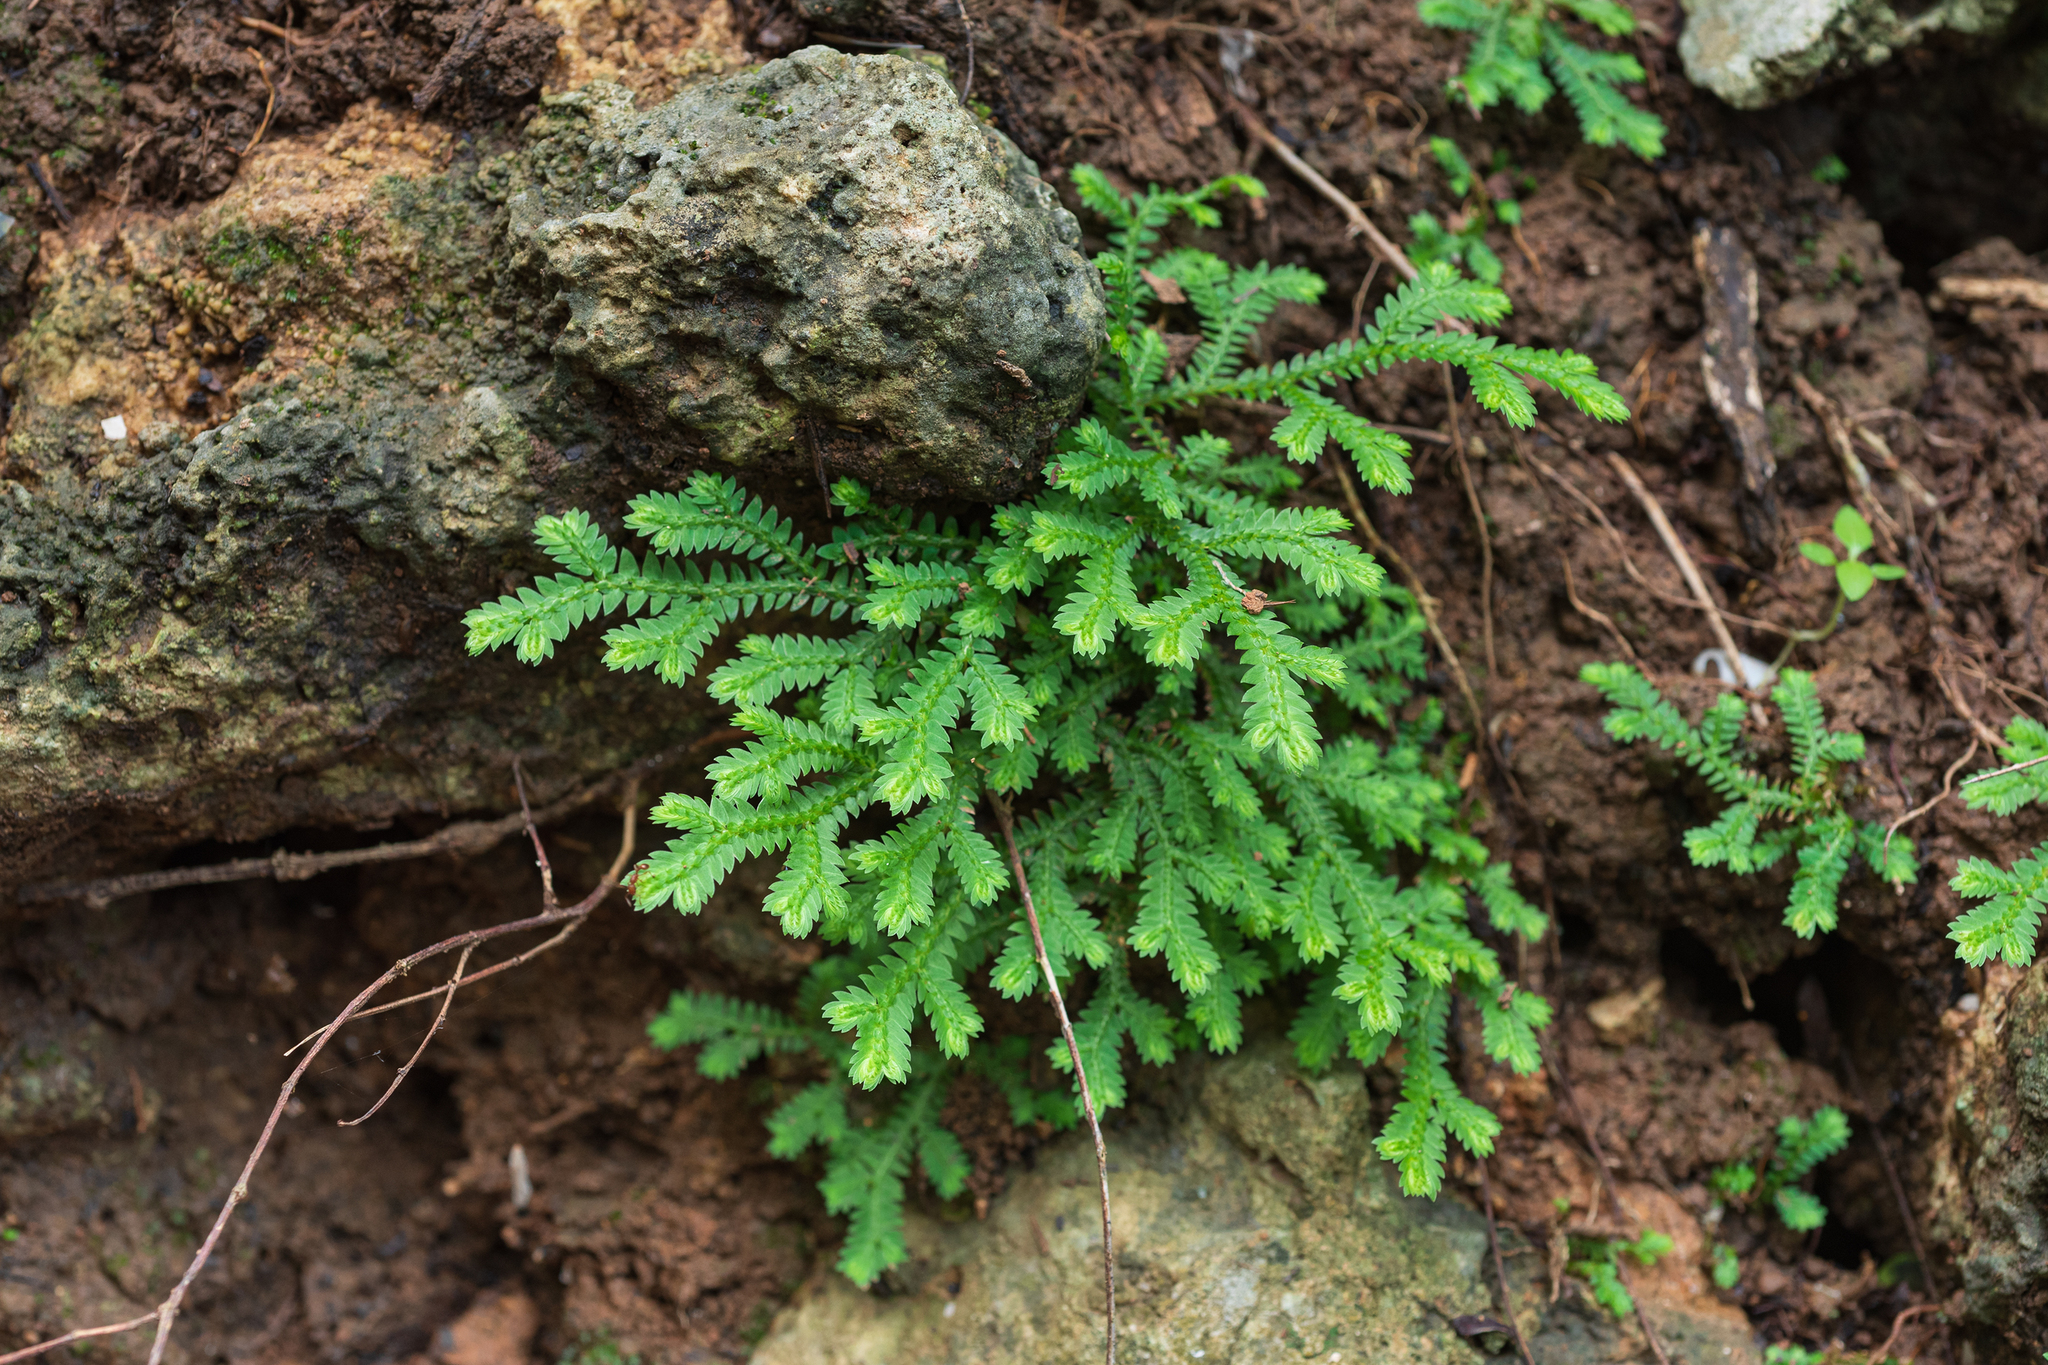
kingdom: Plantae
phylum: Tracheophyta
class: Lycopodiopsida
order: Selaginellales
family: Selaginellaceae
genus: Selaginella
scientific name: Selaginella repanda
